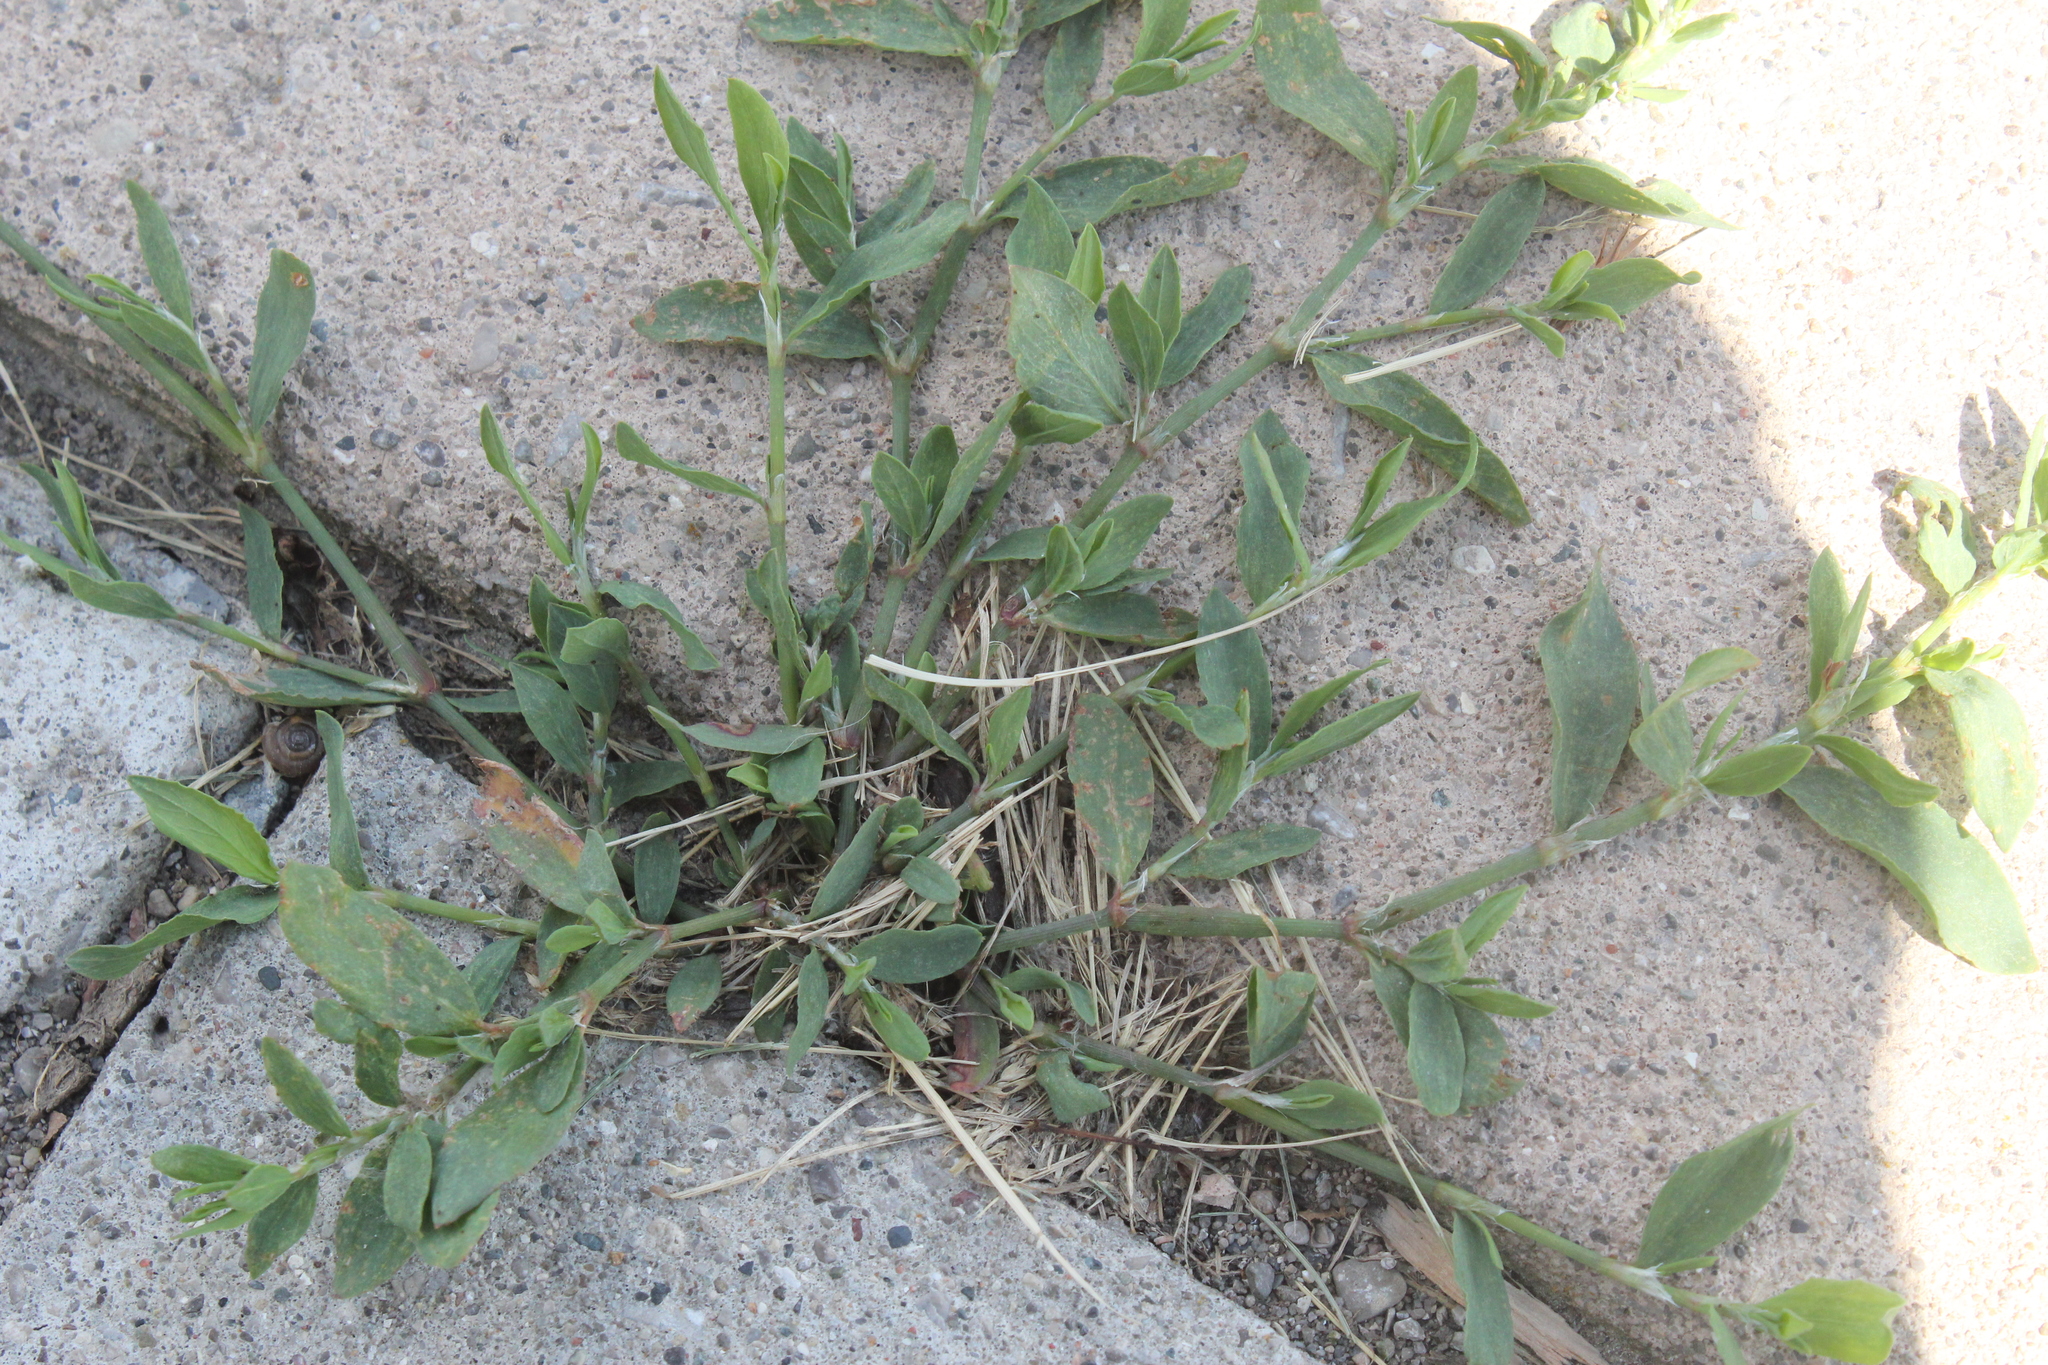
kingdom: Plantae
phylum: Tracheophyta
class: Magnoliopsida
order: Caryophyllales
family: Polygonaceae
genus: Polygonum
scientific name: Polygonum aviculare
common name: Prostrate knotweed
